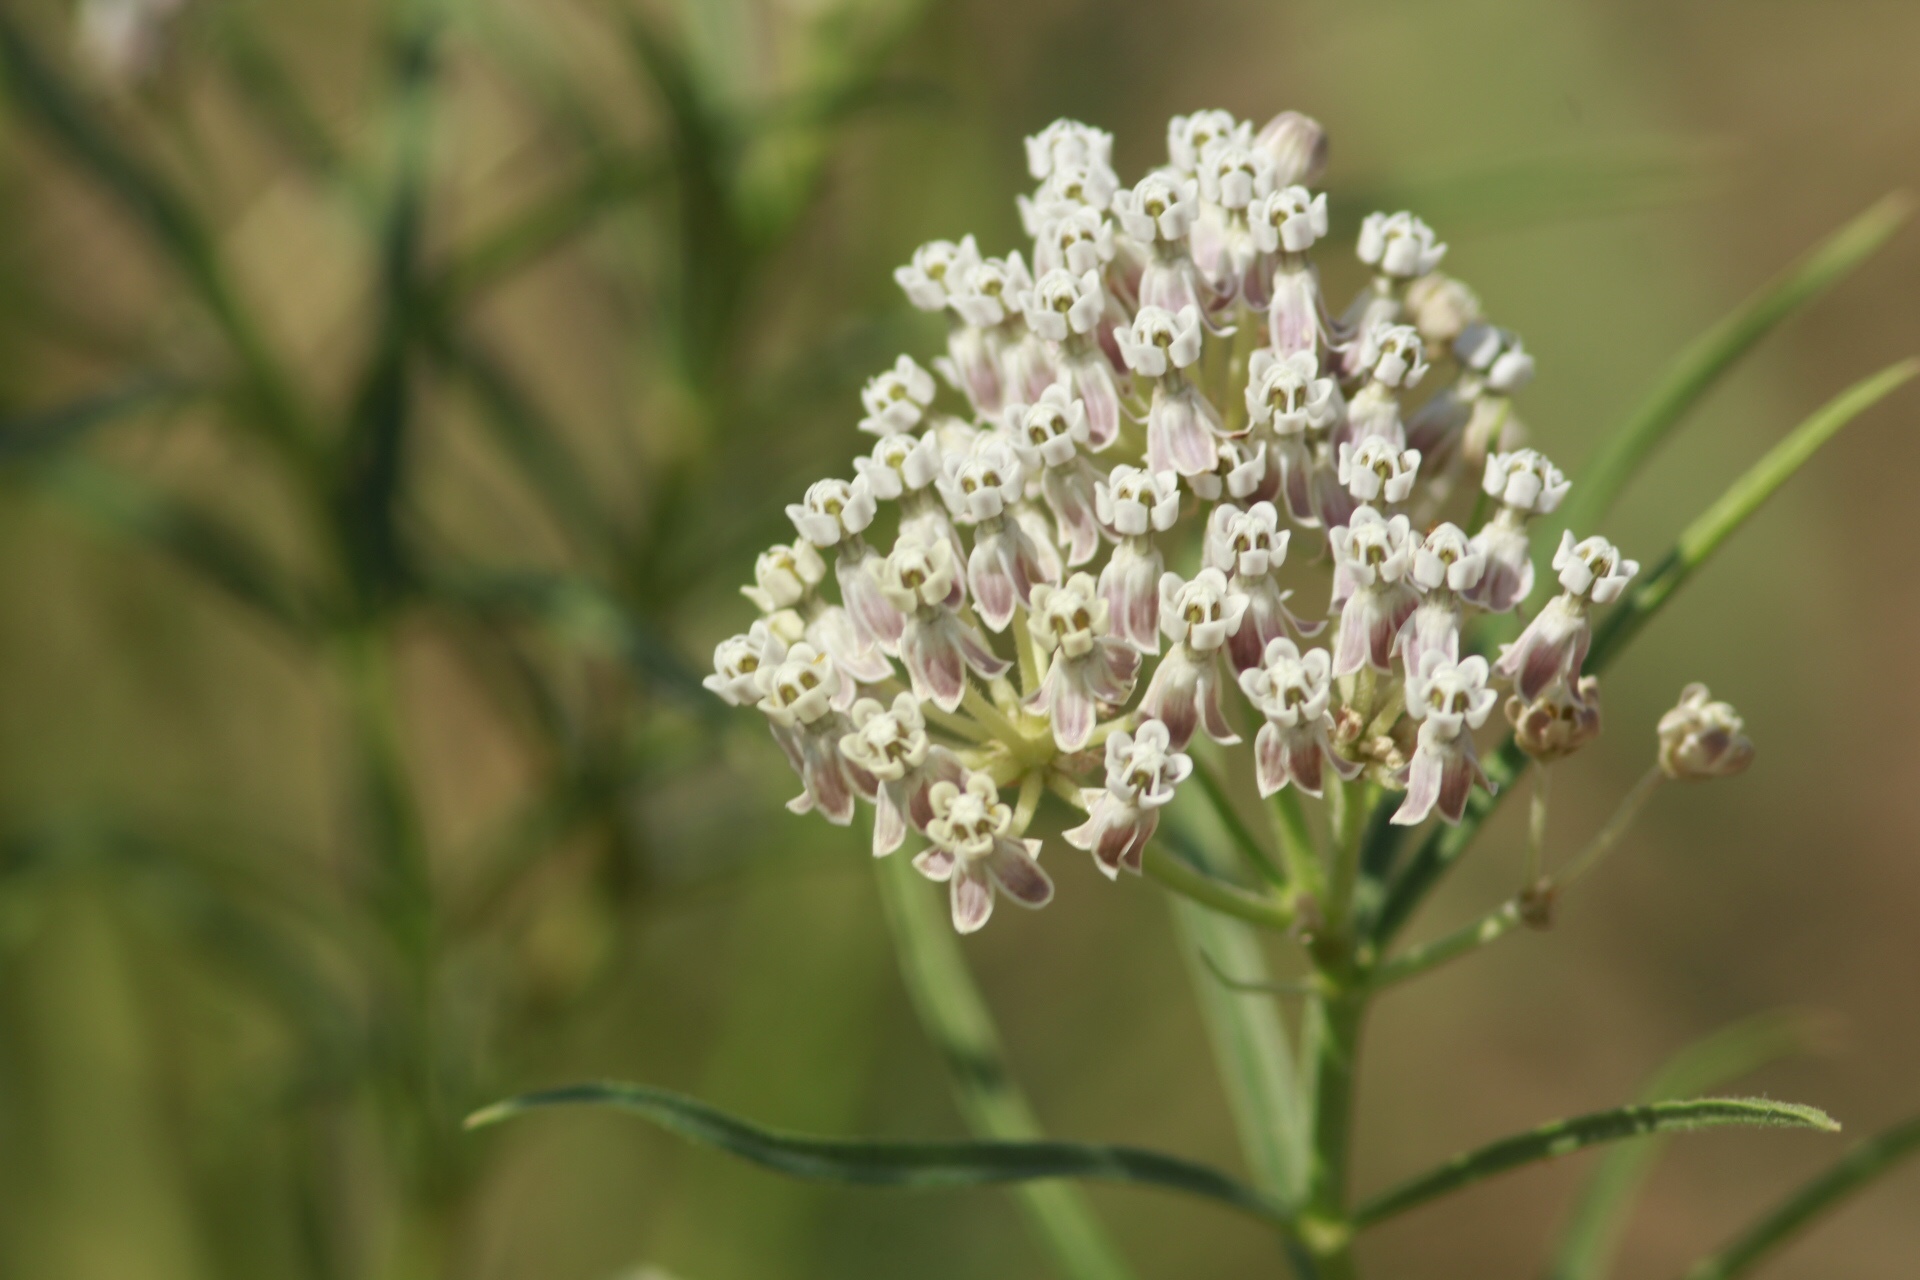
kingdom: Plantae
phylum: Tracheophyta
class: Magnoliopsida
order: Gentianales
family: Apocynaceae
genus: Asclepias
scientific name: Asclepias fascicularis
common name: Mexican milkweed
